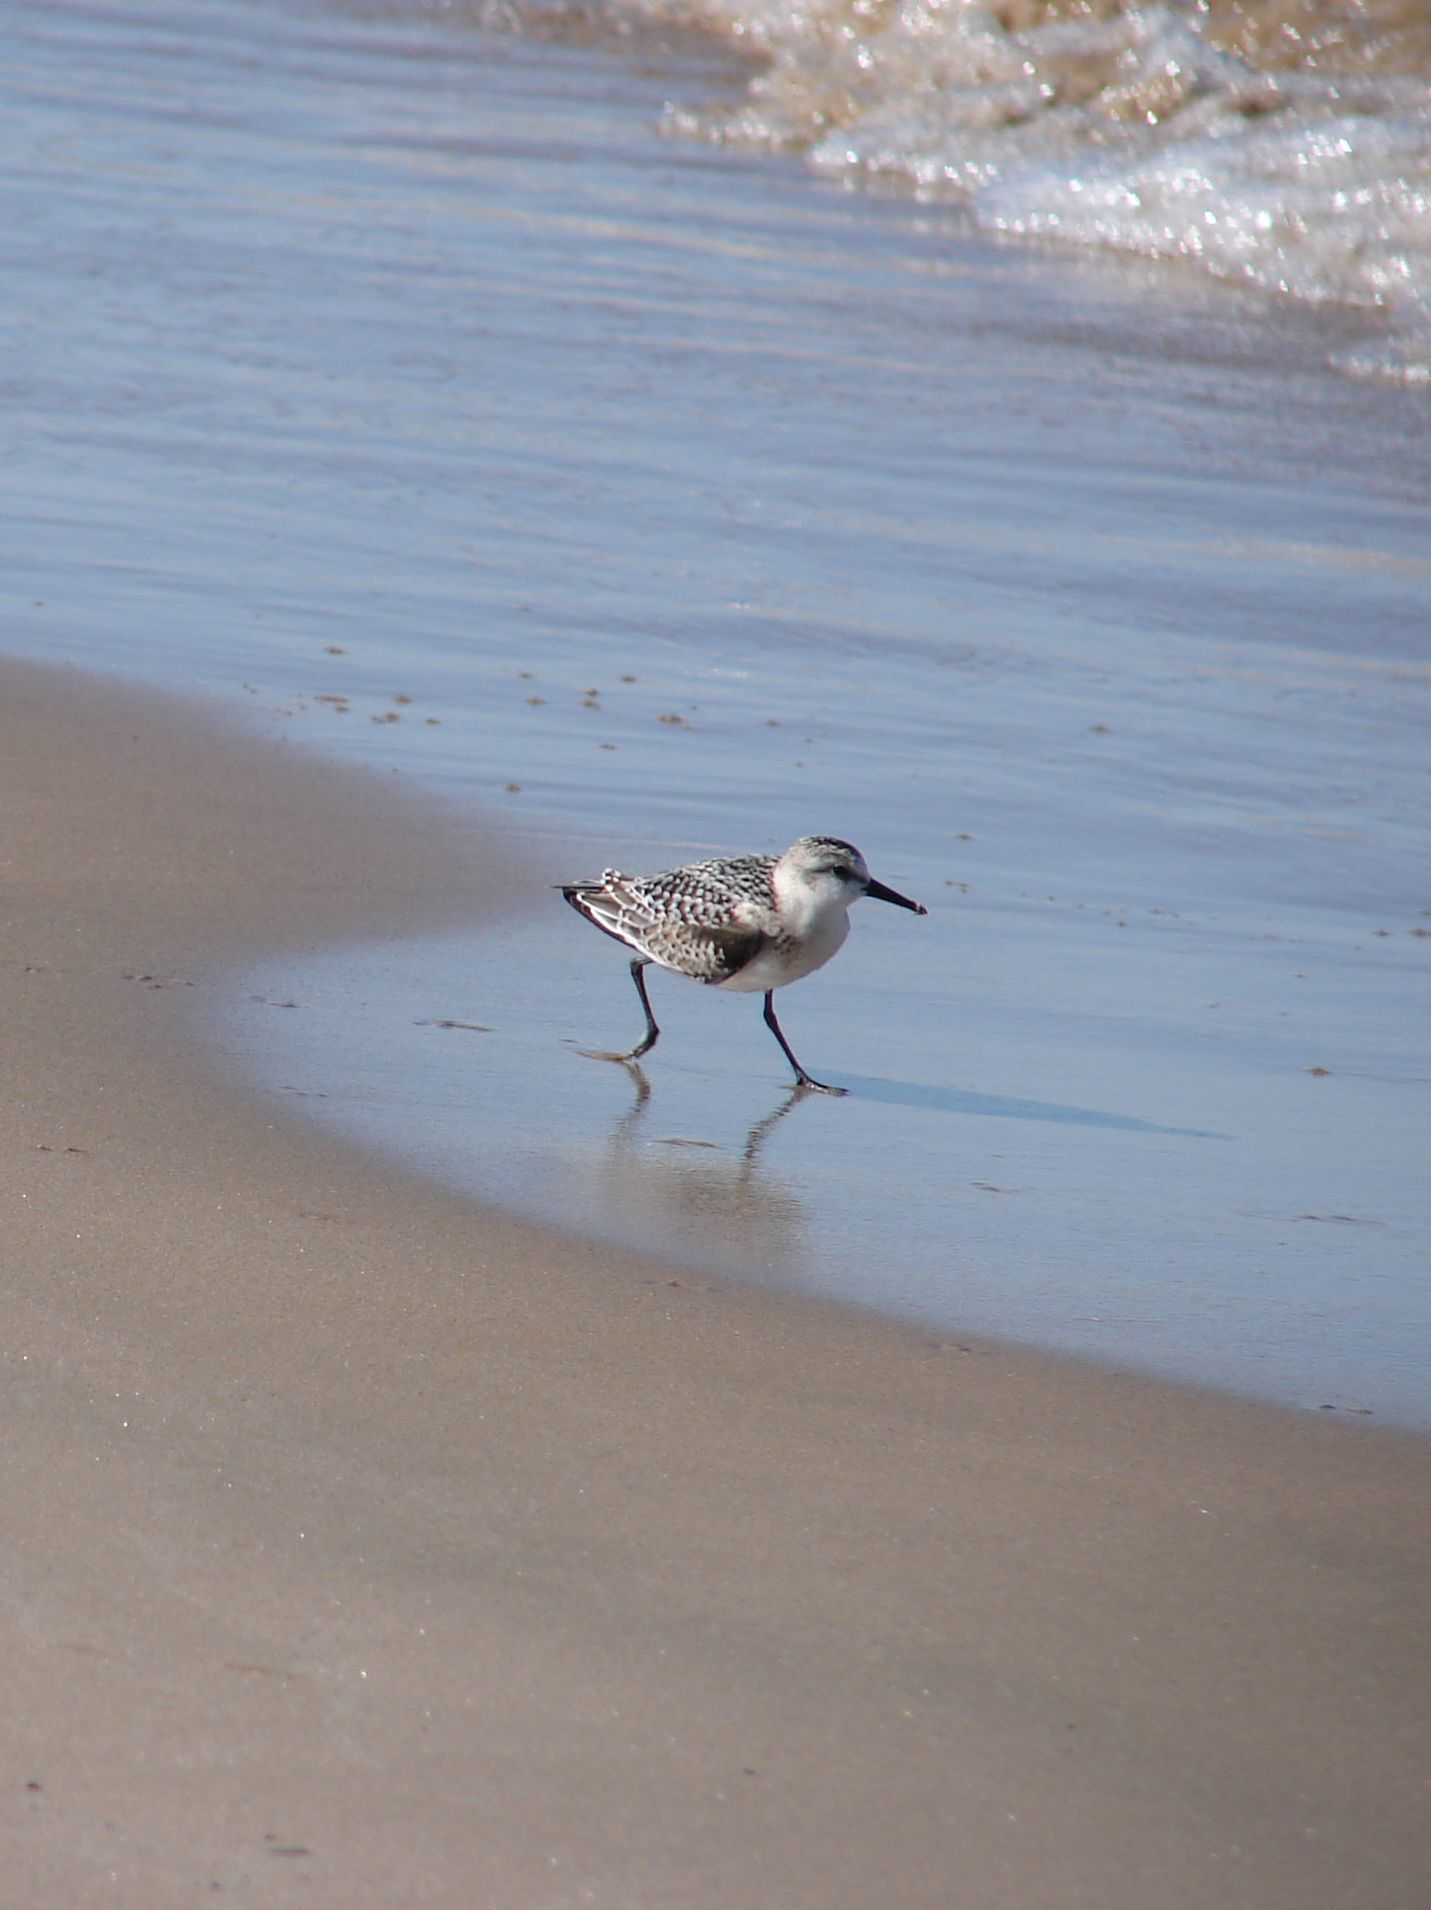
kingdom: Animalia
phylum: Chordata
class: Aves
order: Charadriiformes
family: Scolopacidae
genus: Calidris
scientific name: Calidris alba
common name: Sanderling
